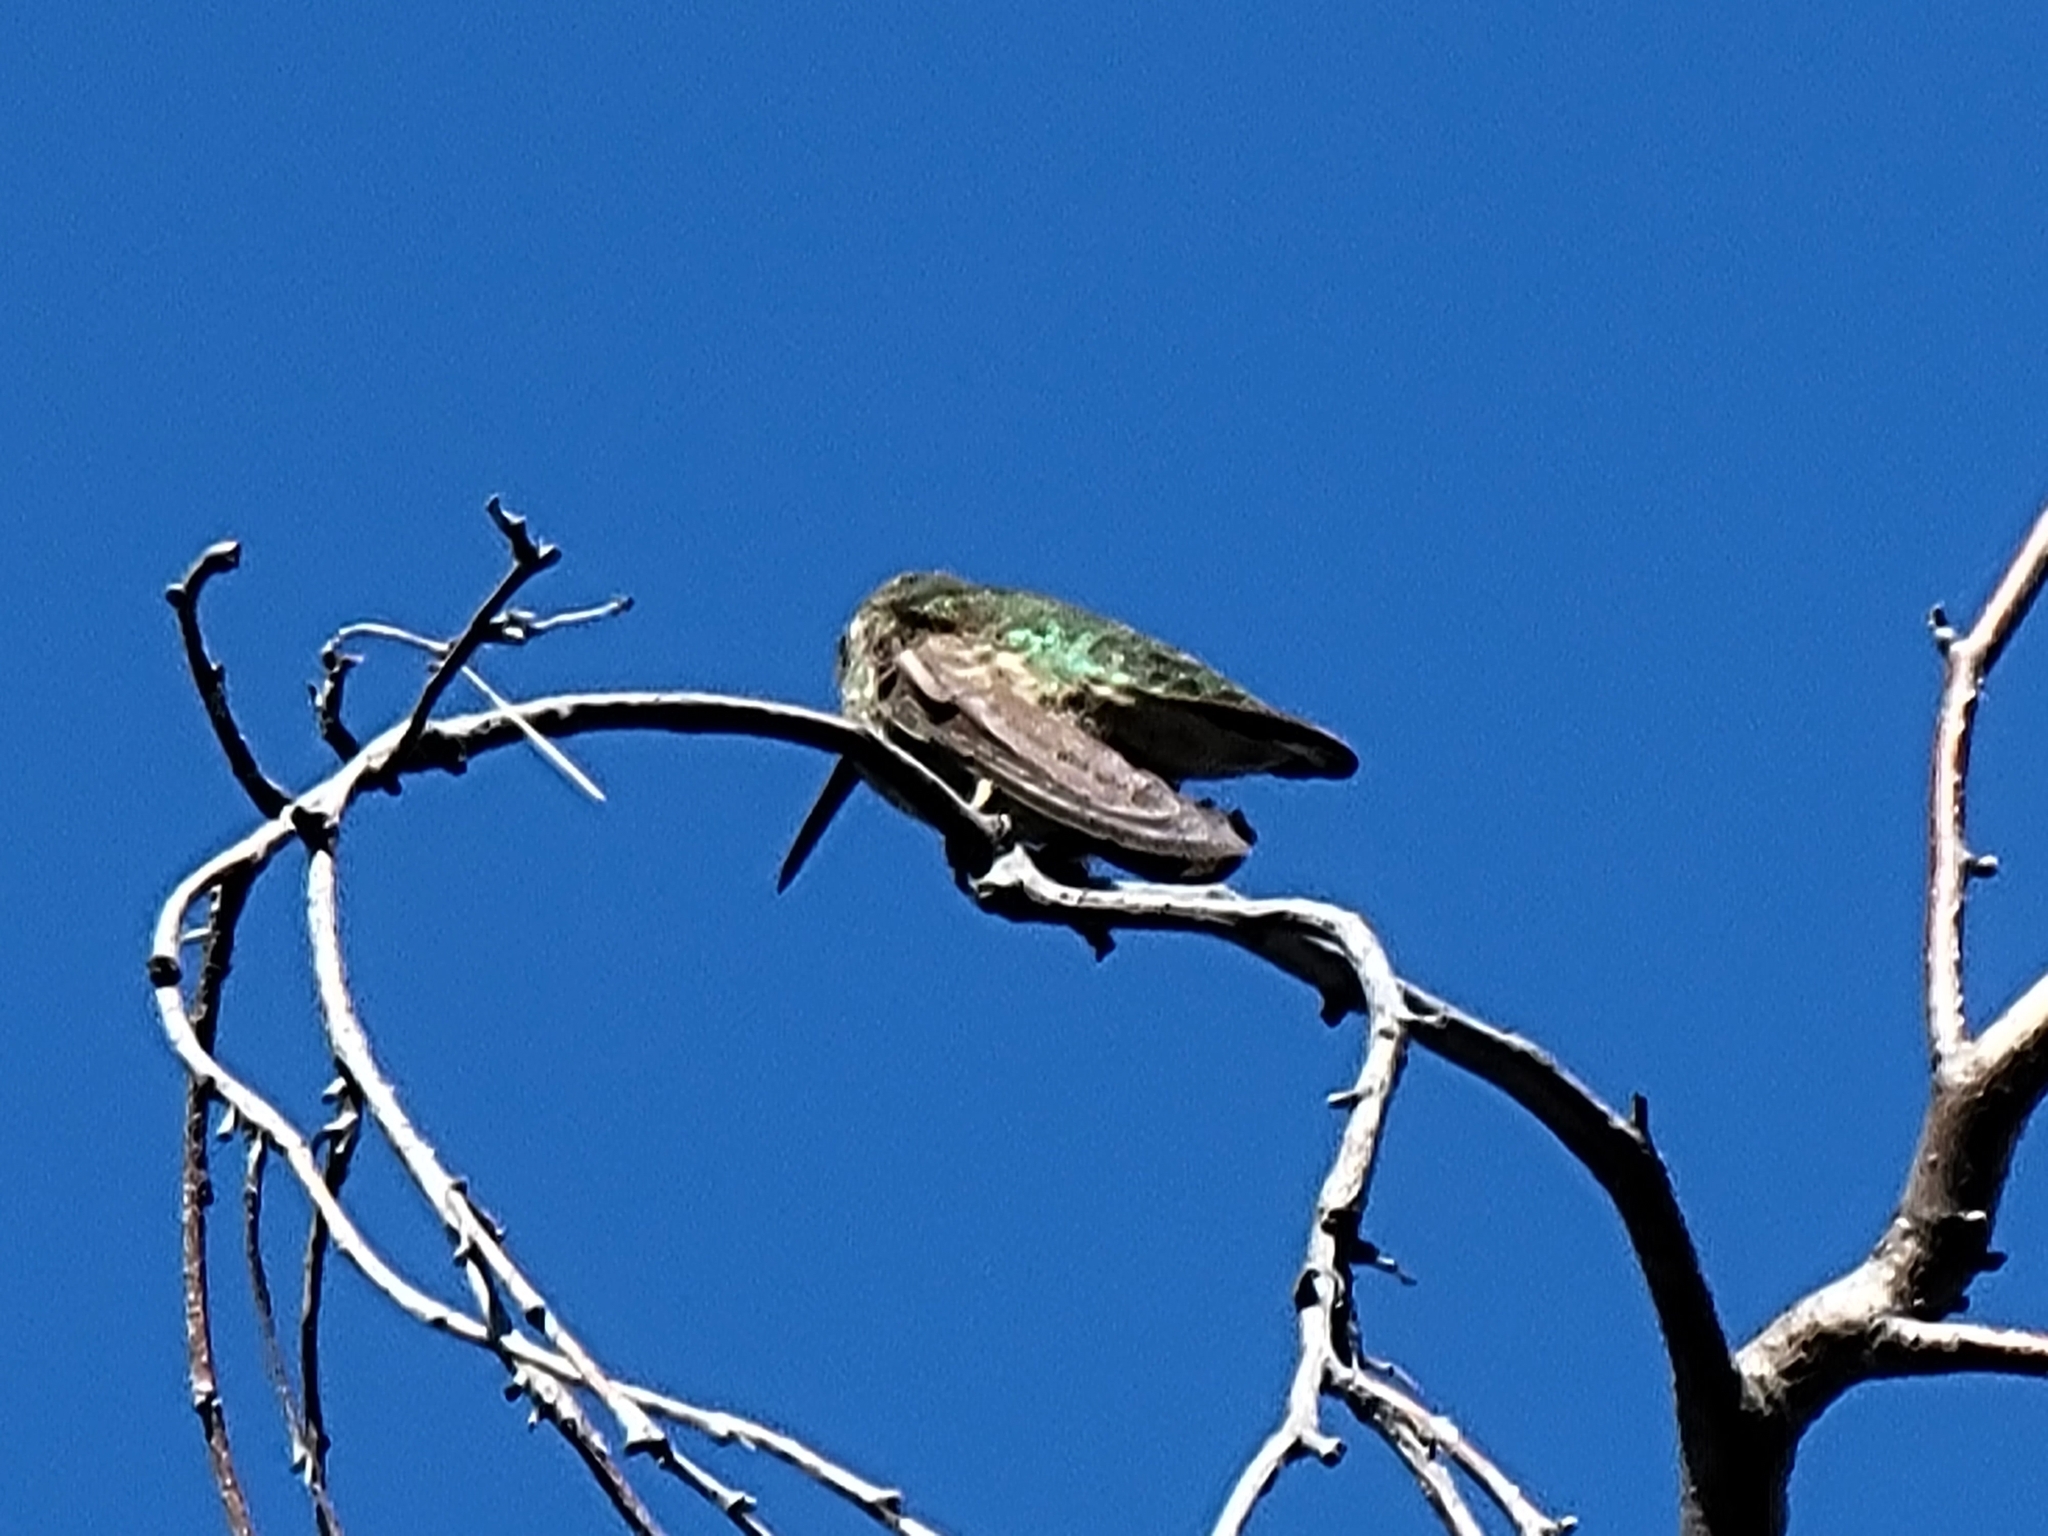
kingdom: Animalia
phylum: Chordata
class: Aves
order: Apodiformes
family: Trochilidae
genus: Calypte
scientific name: Calypte anna
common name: Anna's hummingbird
